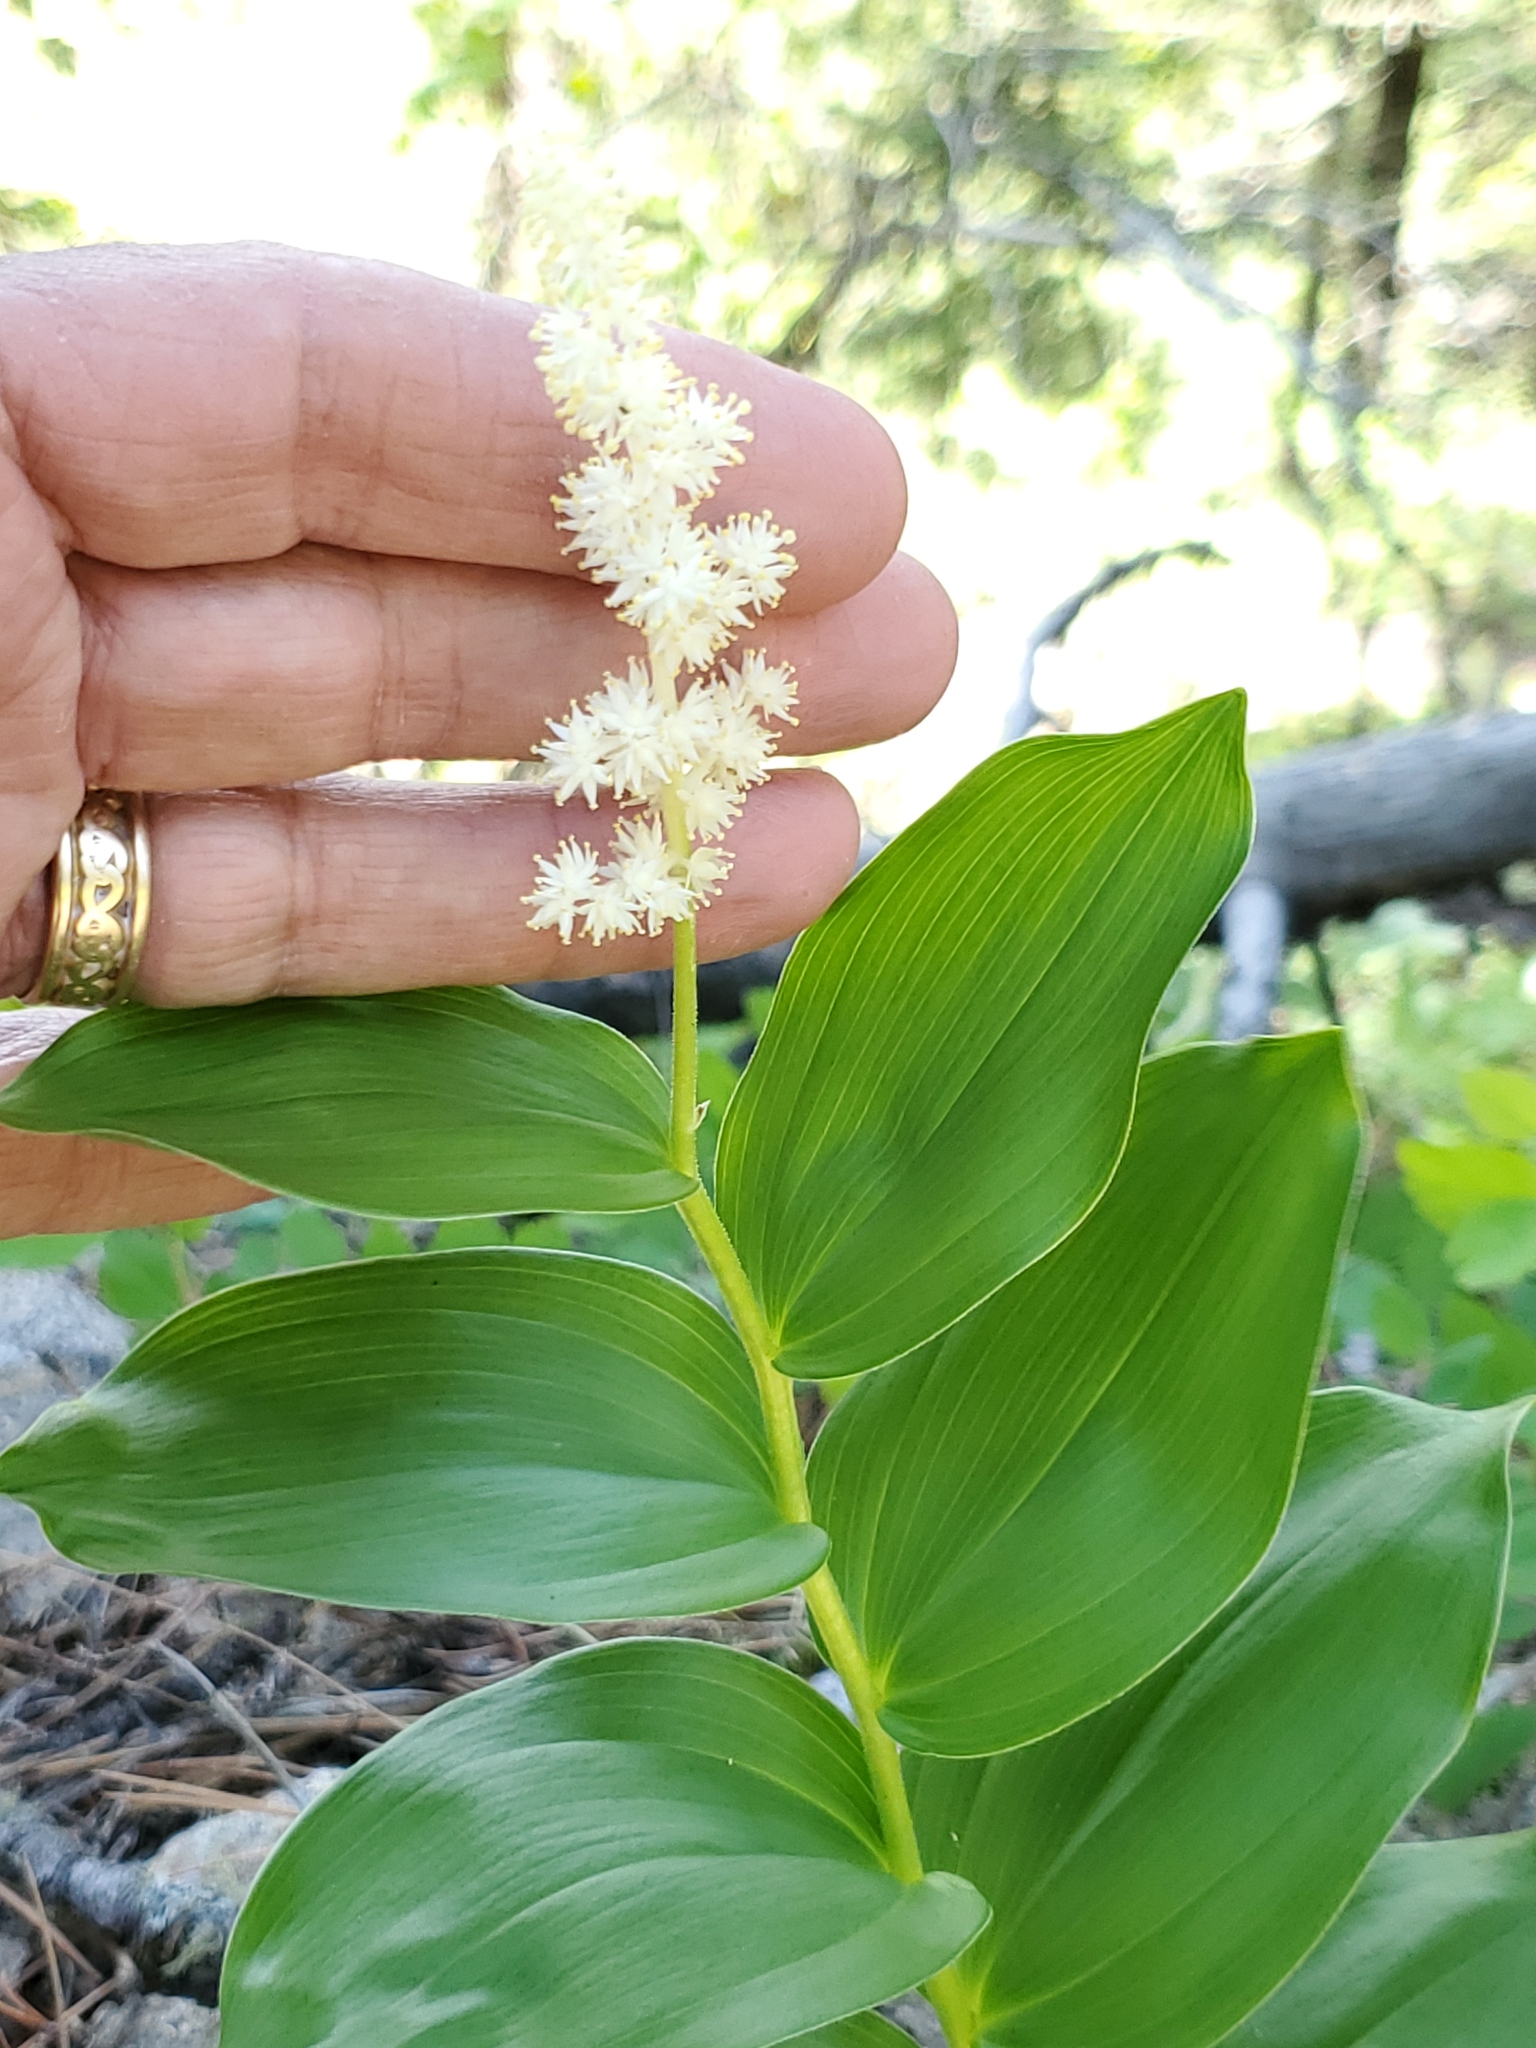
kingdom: Plantae
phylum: Tracheophyta
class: Liliopsida
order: Asparagales
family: Asparagaceae
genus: Maianthemum
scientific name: Maianthemum racemosum
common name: False spikenard
